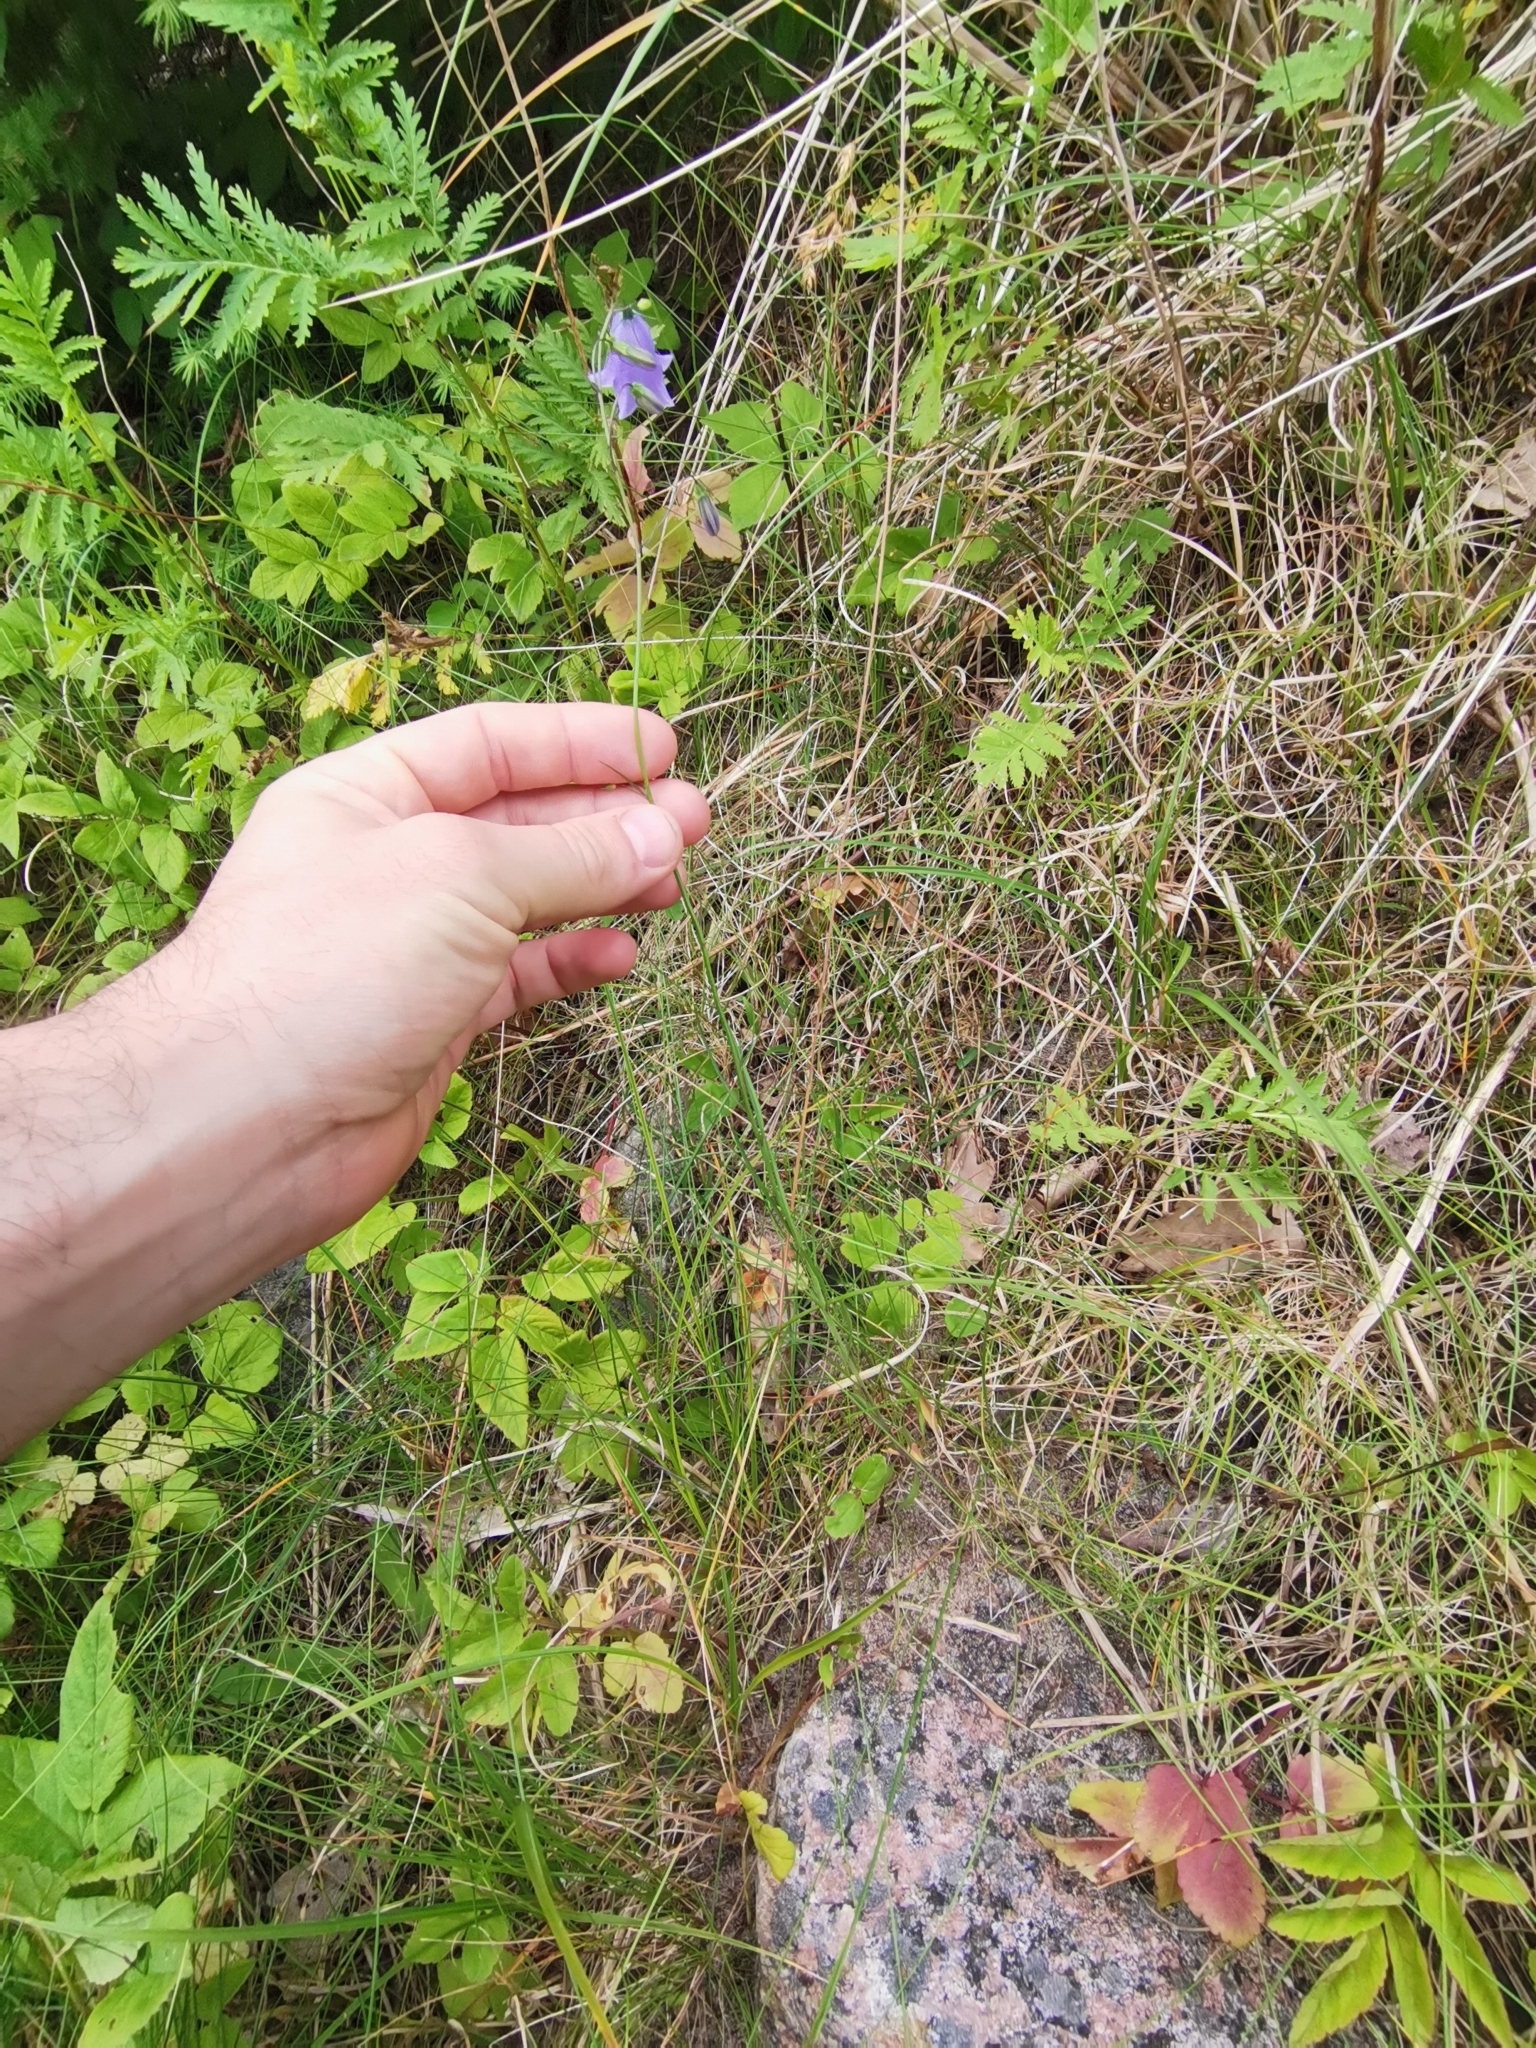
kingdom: Plantae
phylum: Tracheophyta
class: Magnoliopsida
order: Asterales
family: Campanulaceae
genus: Campanula
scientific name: Campanula rotundifolia
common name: Harebell
